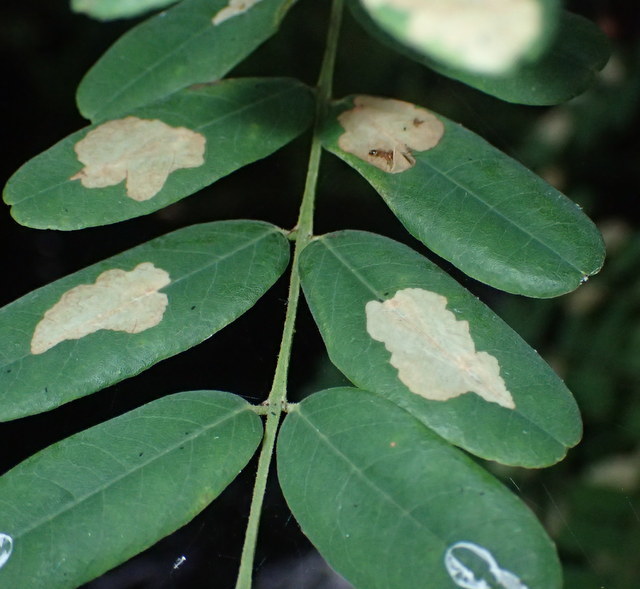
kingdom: Animalia
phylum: Arthropoda
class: Insecta
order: Lepidoptera
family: Gracillariidae
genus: Parectopa
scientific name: Parectopa robiniella
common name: Locust digitate leafminer
